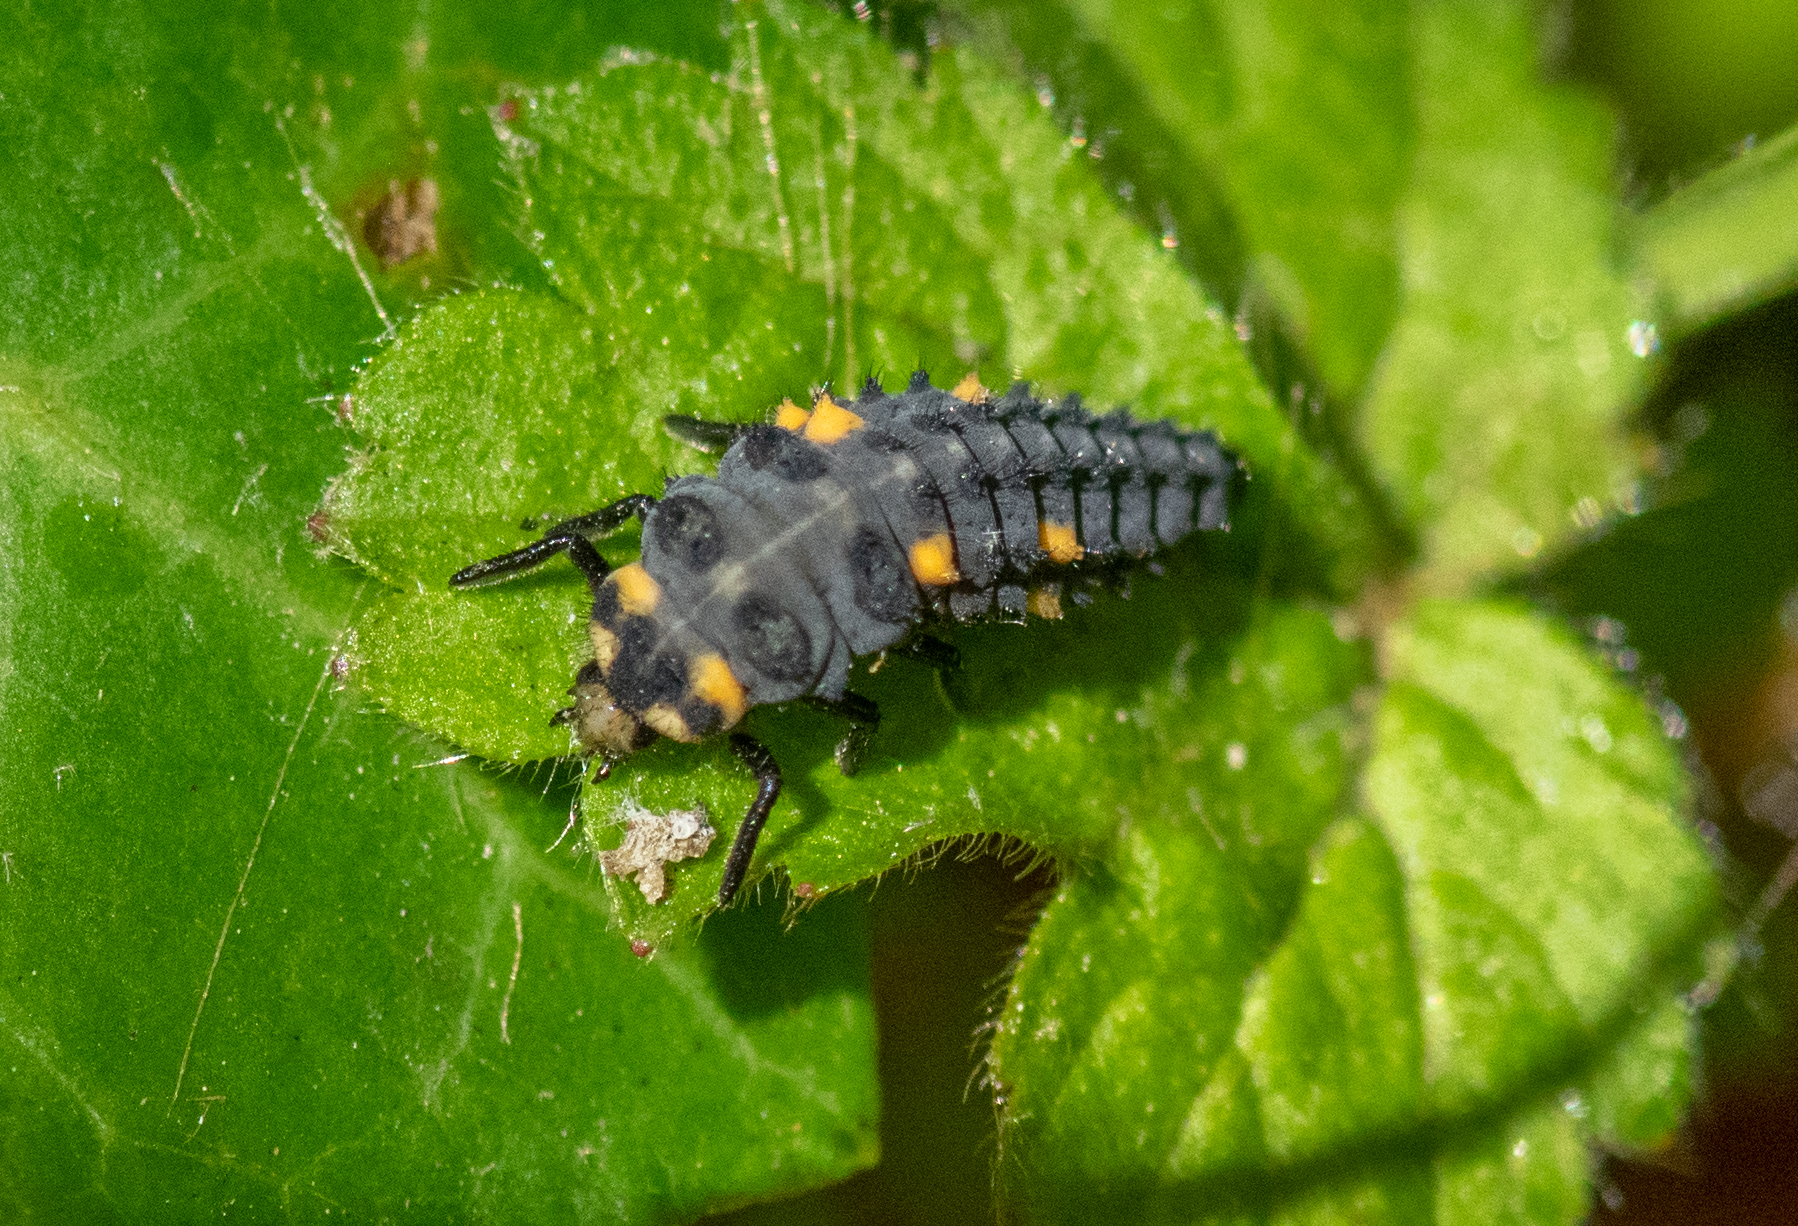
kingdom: Animalia
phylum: Arthropoda
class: Insecta
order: Coleoptera
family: Coccinellidae
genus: Coccinella
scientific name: Coccinella septempunctata
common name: Sevenspotted lady beetle
